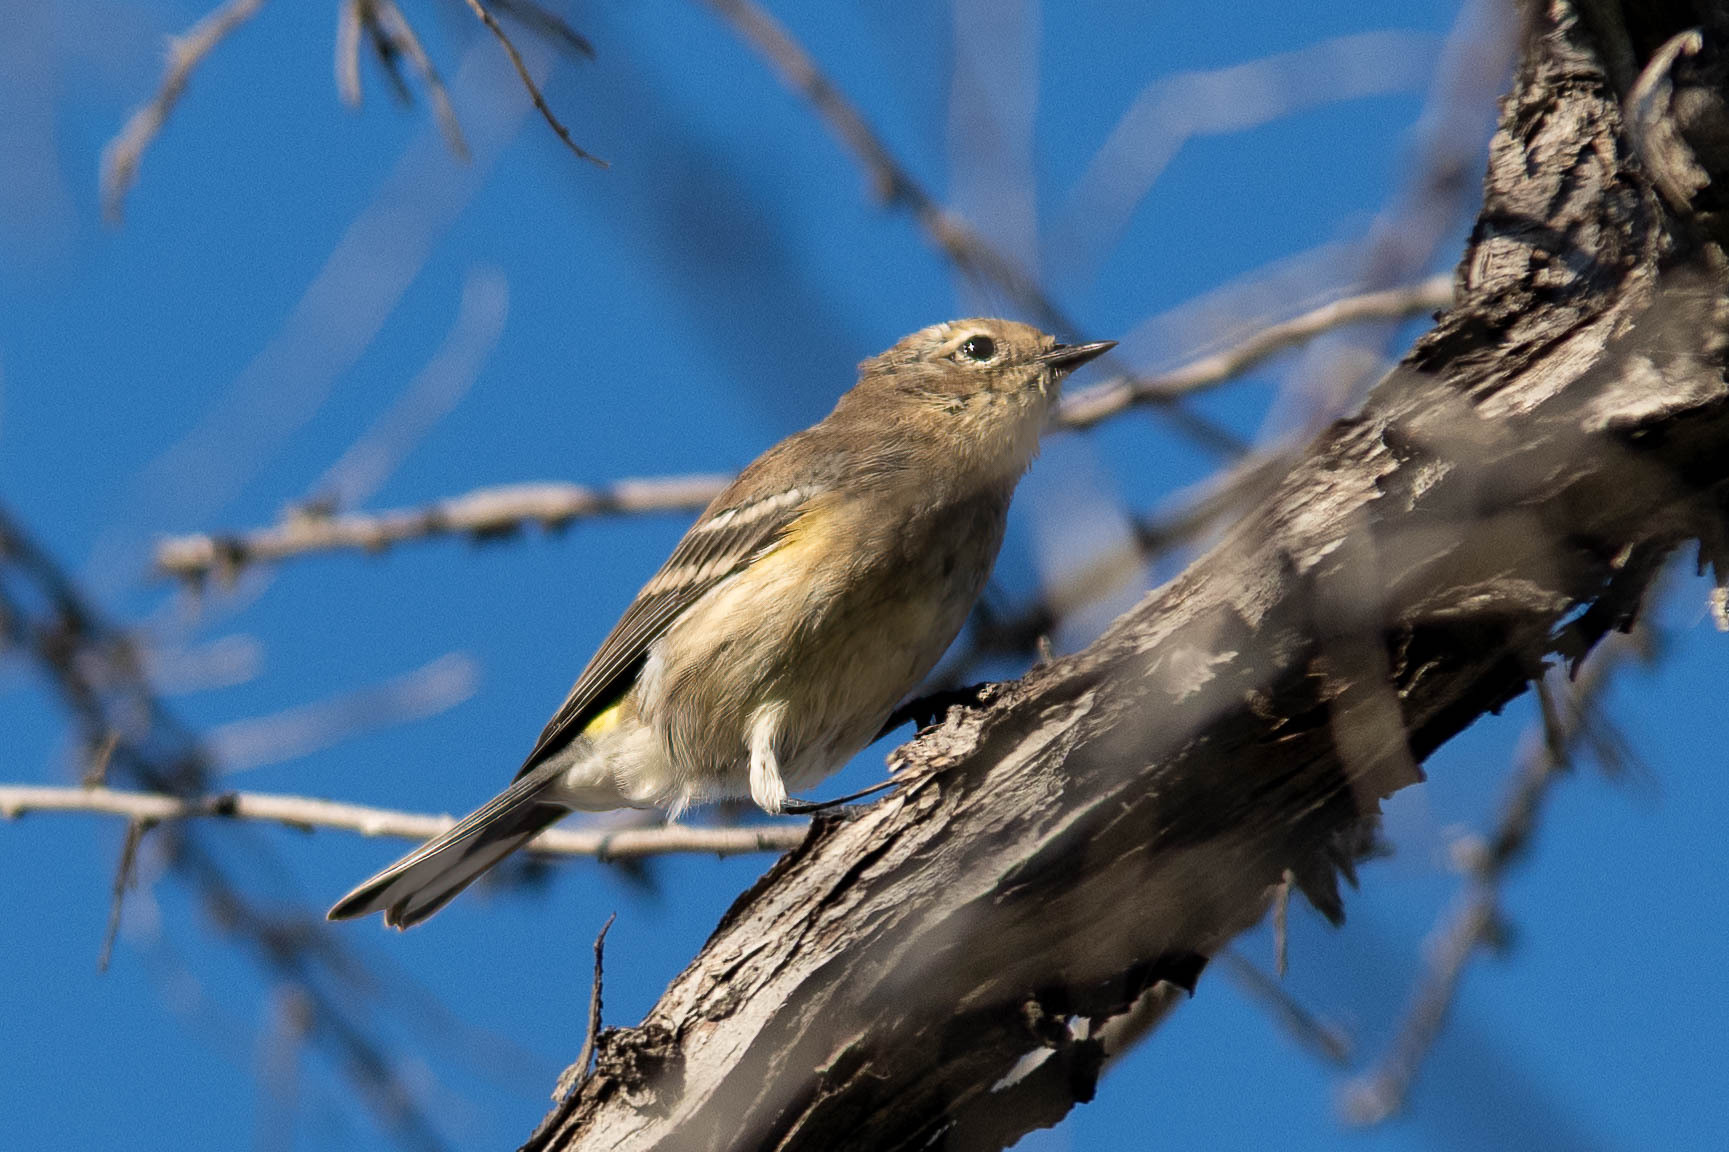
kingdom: Animalia
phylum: Chordata
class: Aves
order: Passeriformes
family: Parulidae
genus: Setophaga
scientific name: Setophaga coronata
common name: Myrtle warbler
